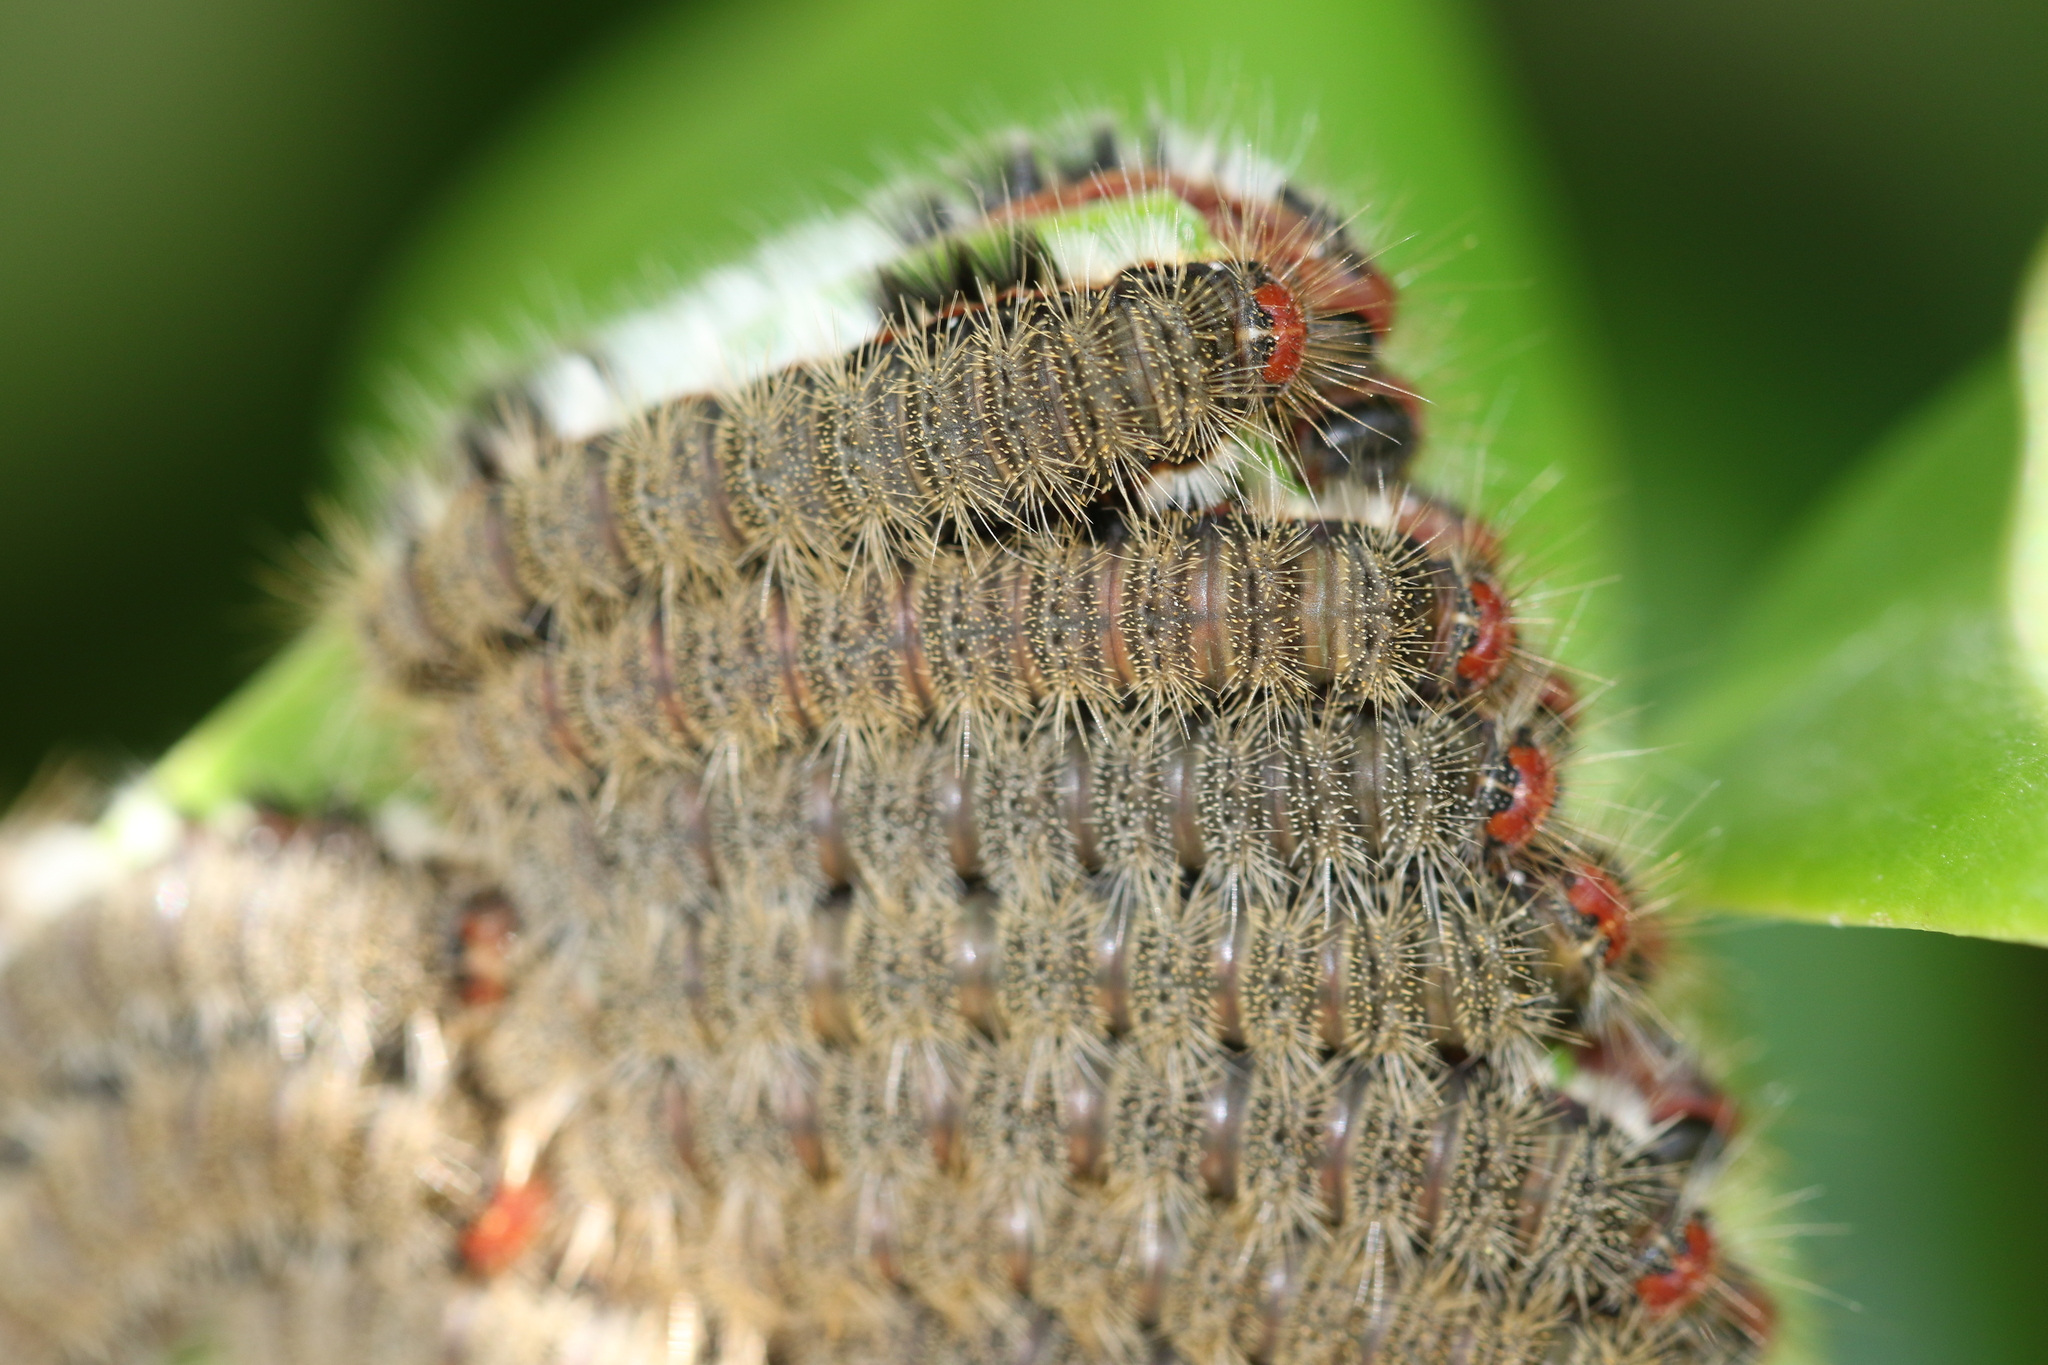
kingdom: Animalia
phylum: Arthropoda
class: Insecta
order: Lepidoptera
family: Lycaenidae
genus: Euselasia
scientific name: Euselasia thucydides
